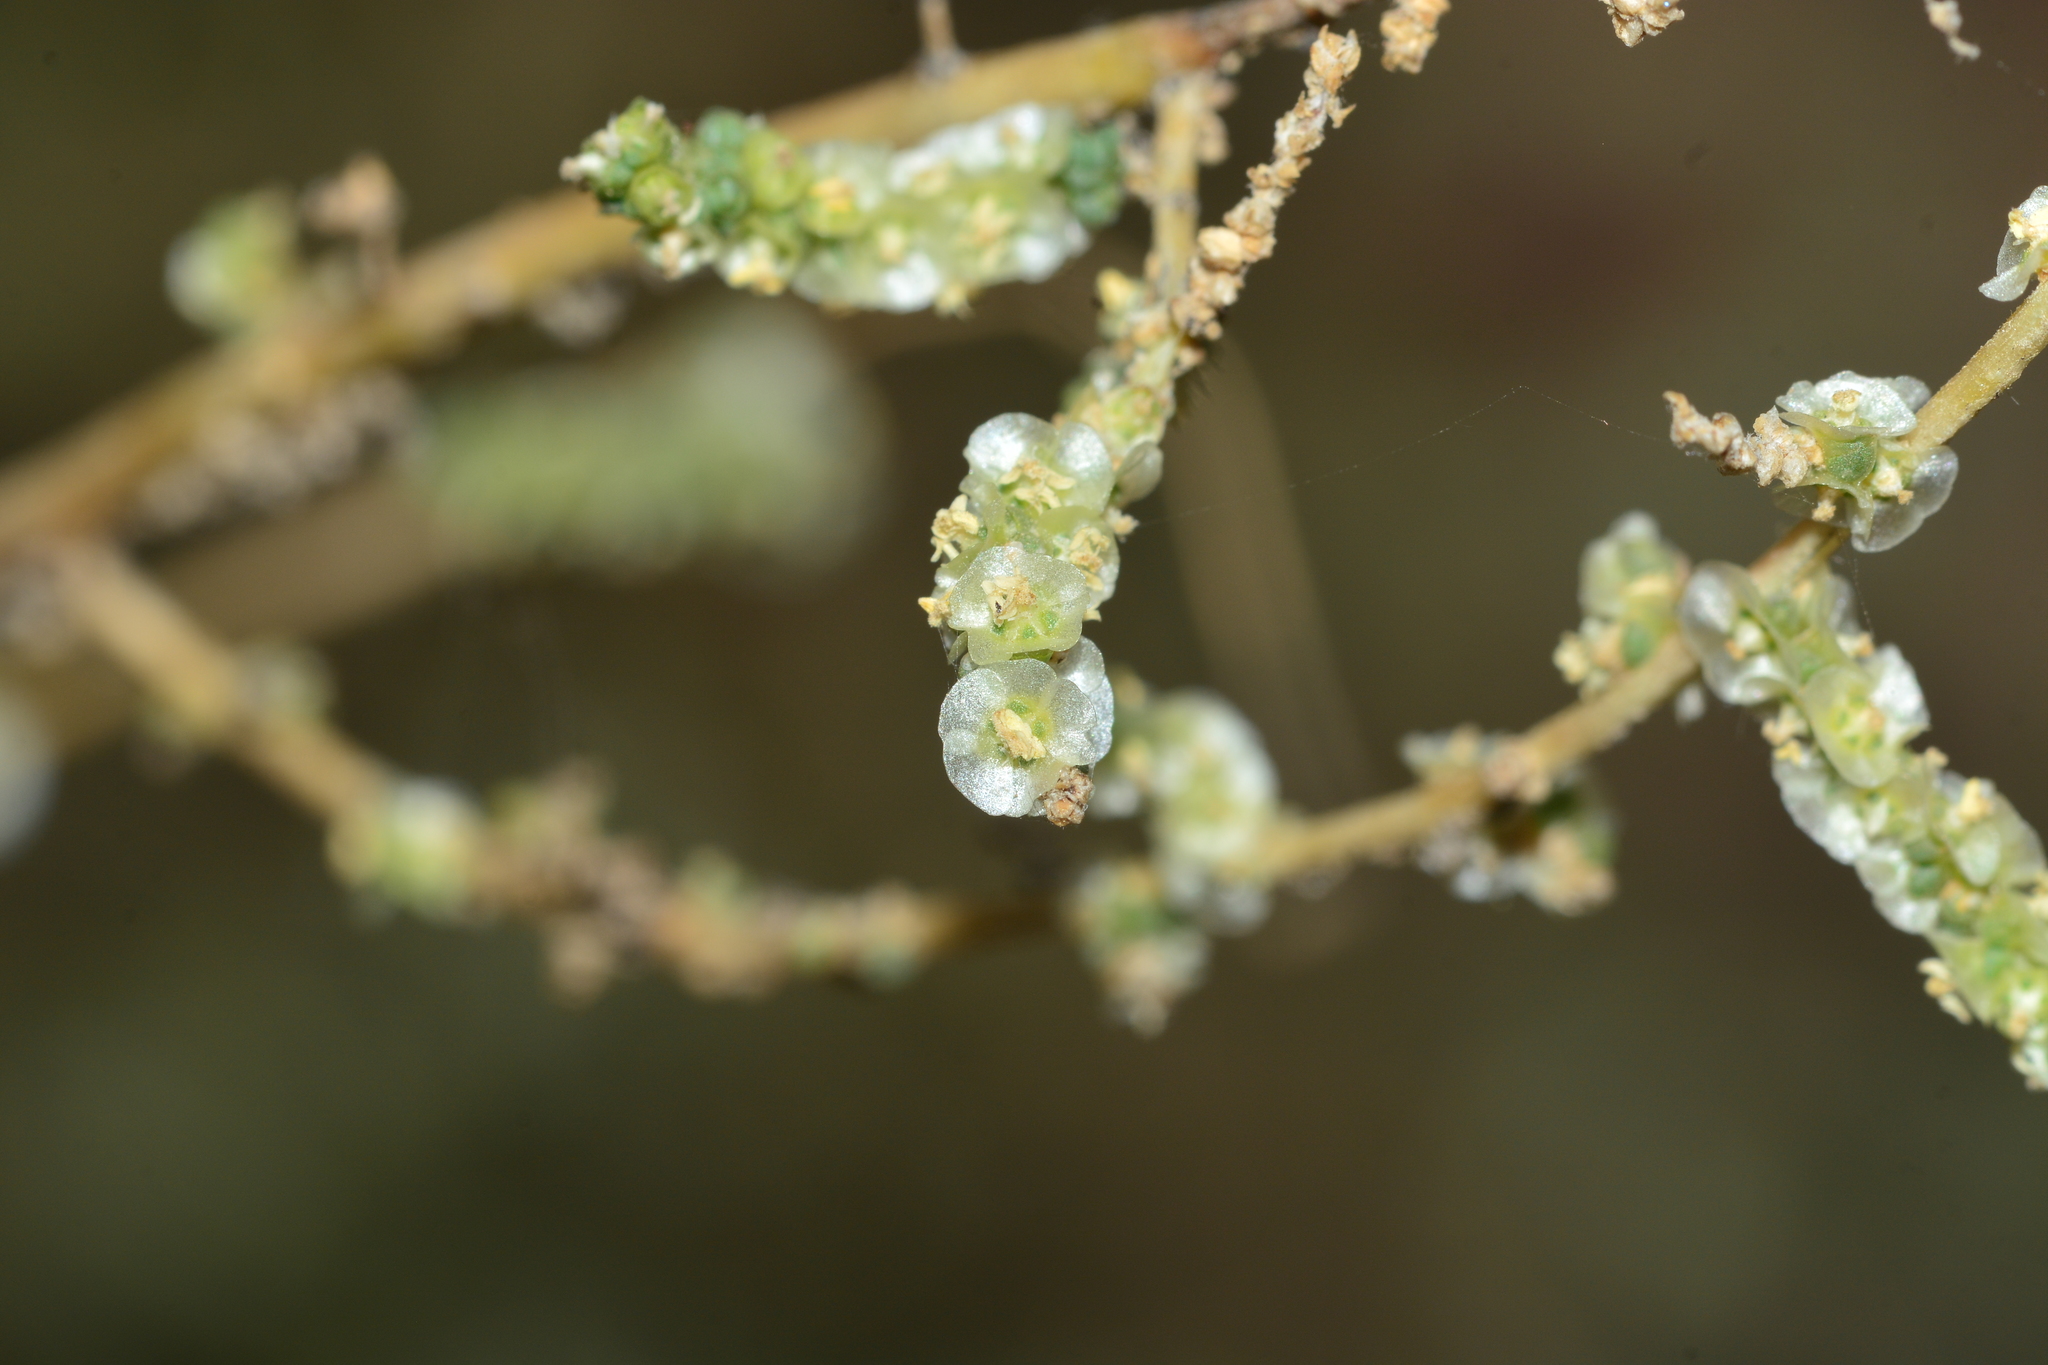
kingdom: Plantae
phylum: Tracheophyta
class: Magnoliopsida
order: Caryophyllales
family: Amaranthaceae
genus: Caroxylon
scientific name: Caroxylon imbricatum
